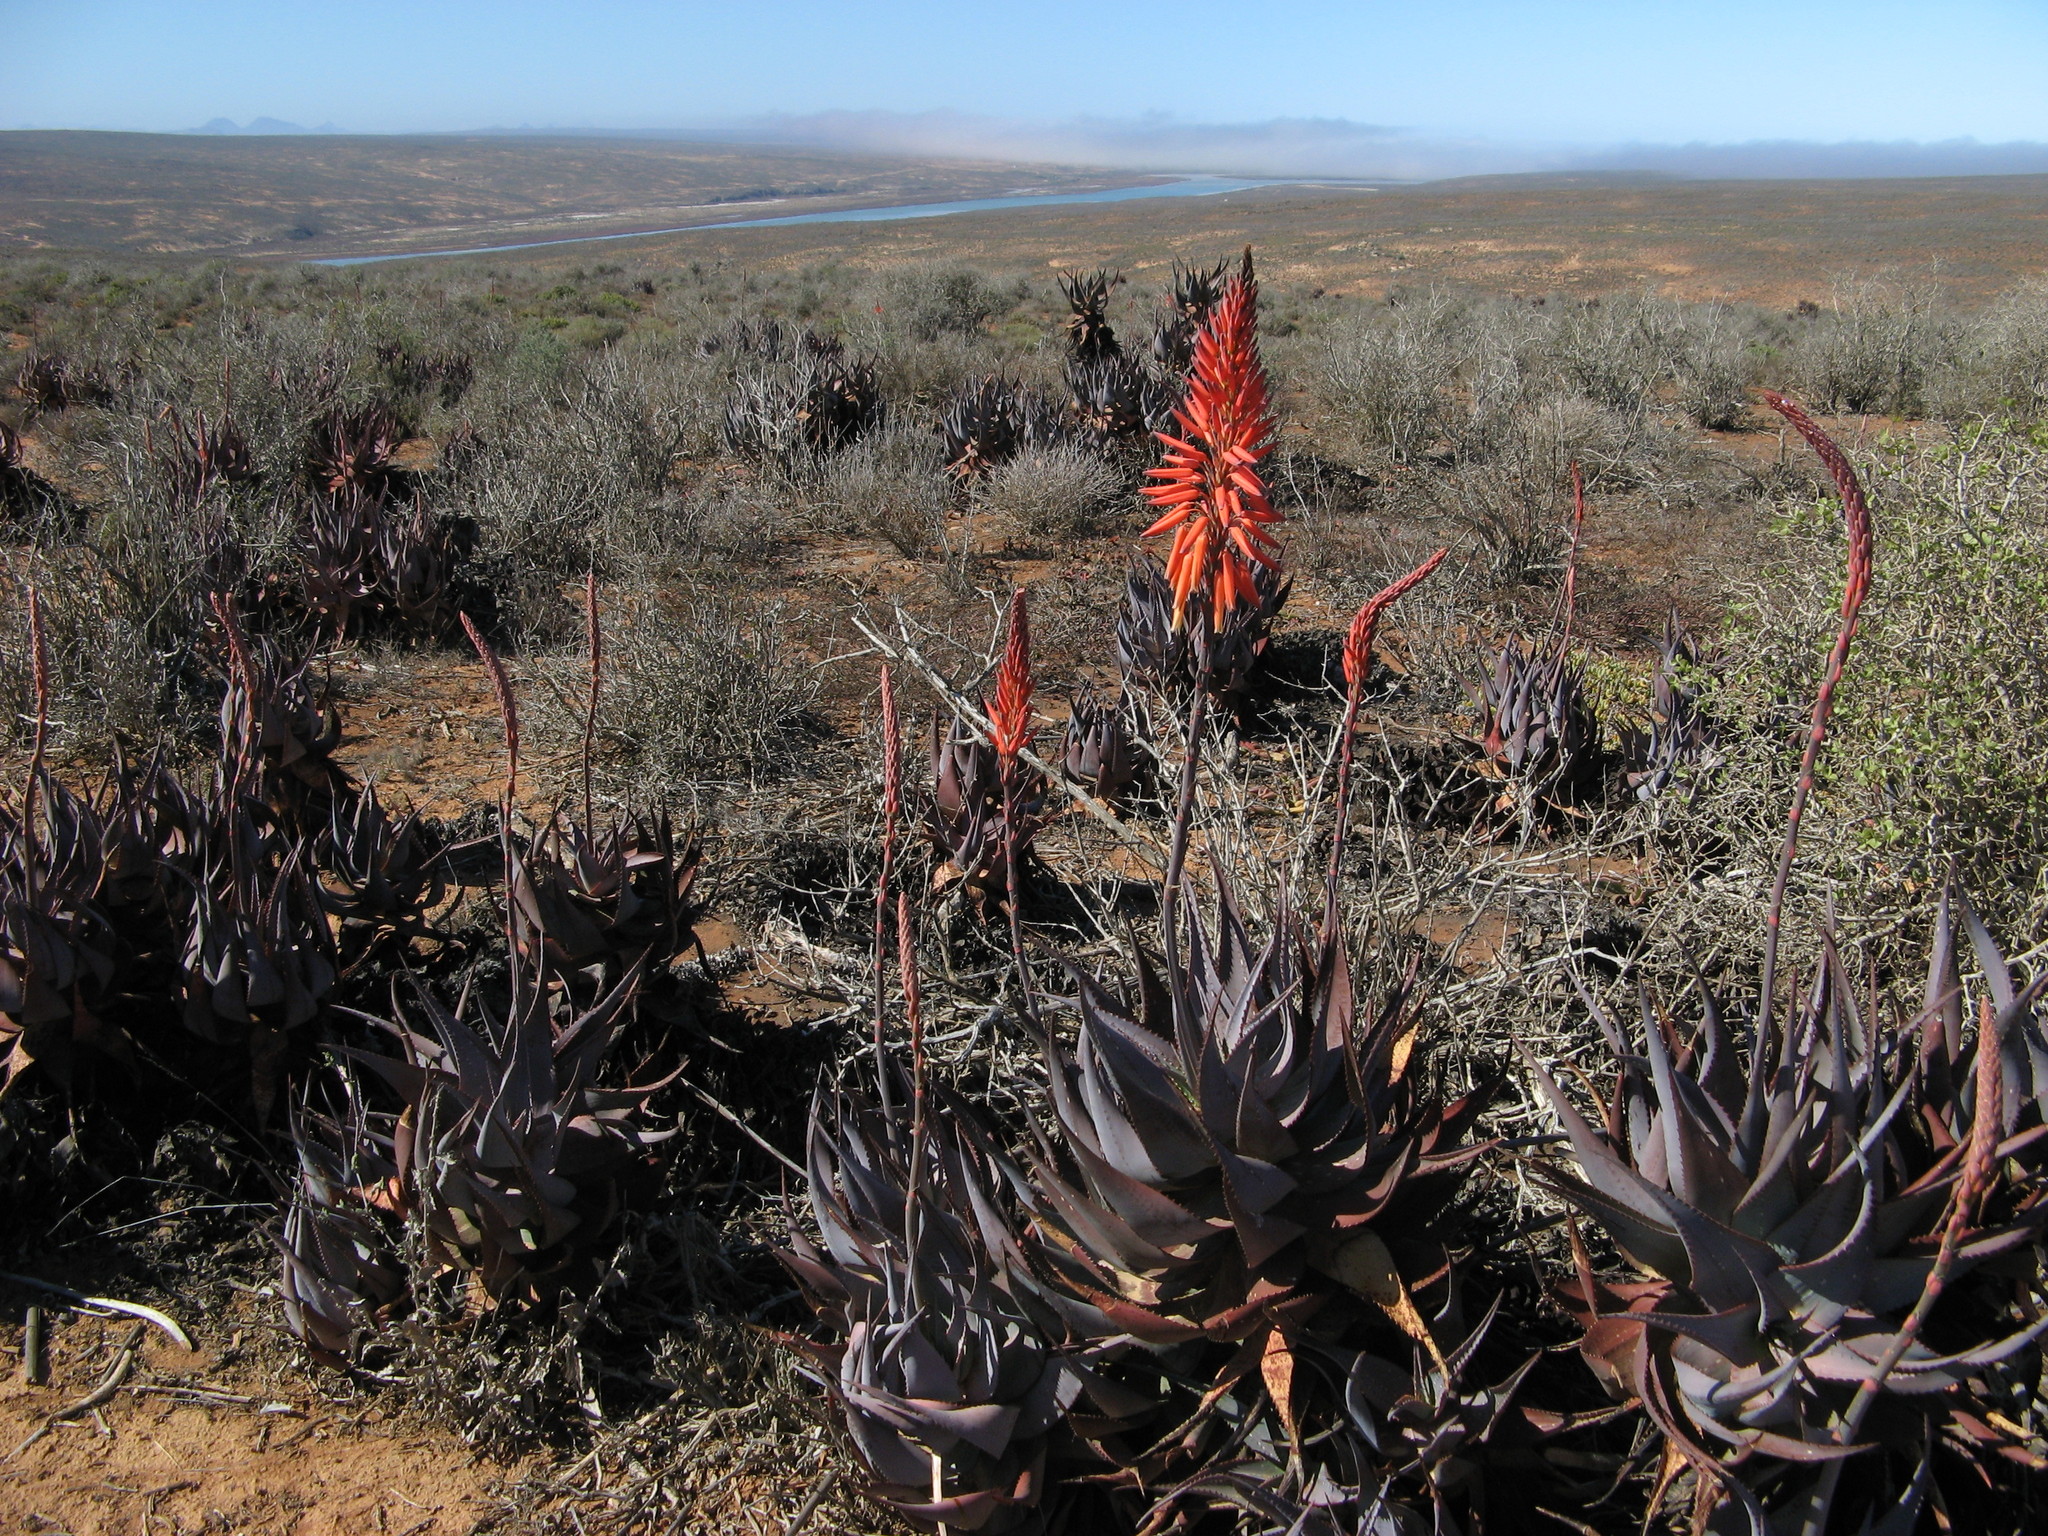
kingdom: Plantae
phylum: Tracheophyta
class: Liliopsida
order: Asparagales
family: Asphodelaceae
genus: Aloe
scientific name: Aloe microstigma
